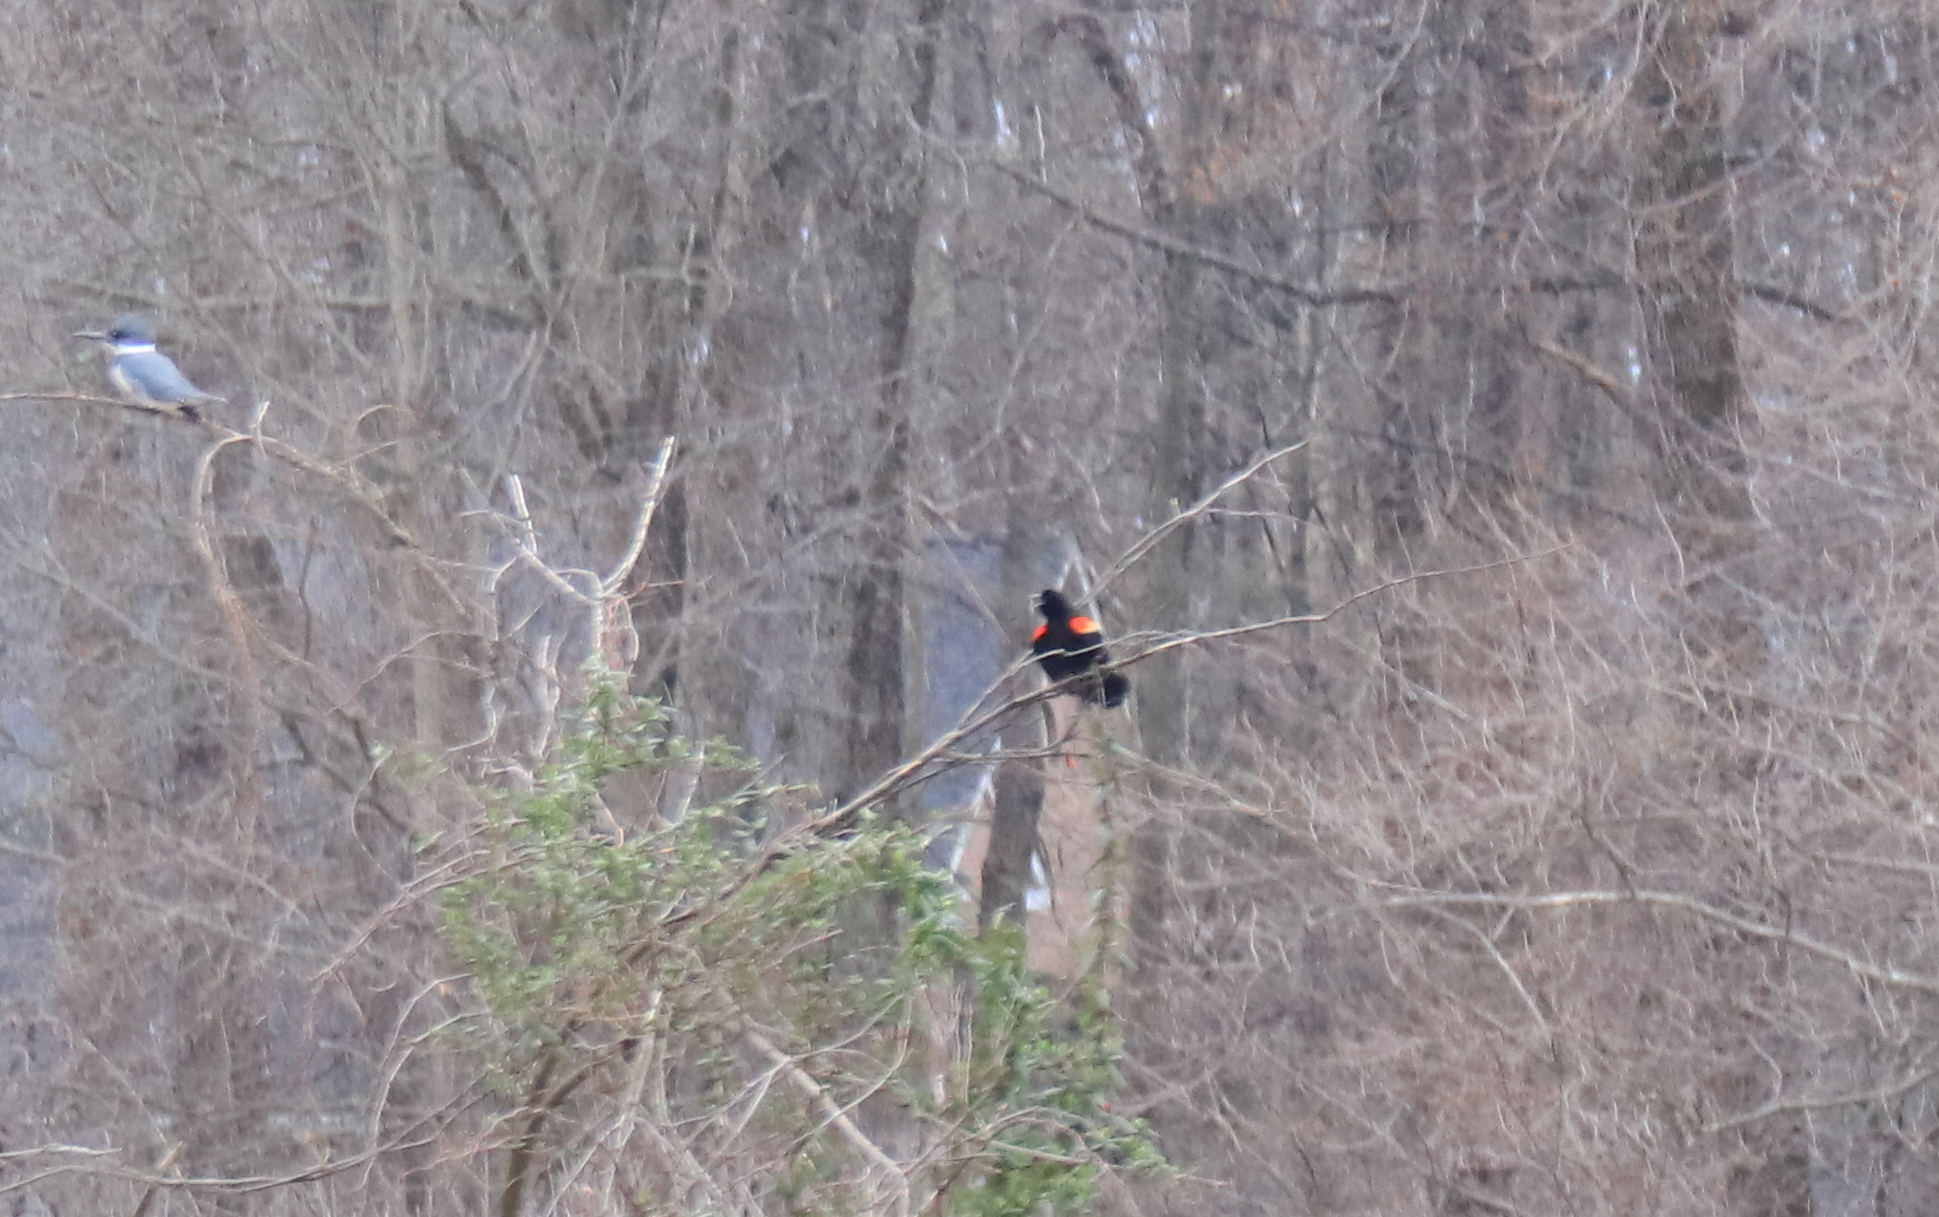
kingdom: Animalia
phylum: Chordata
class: Aves
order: Passeriformes
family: Icteridae
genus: Agelaius
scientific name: Agelaius phoeniceus
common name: Red-winged blackbird
